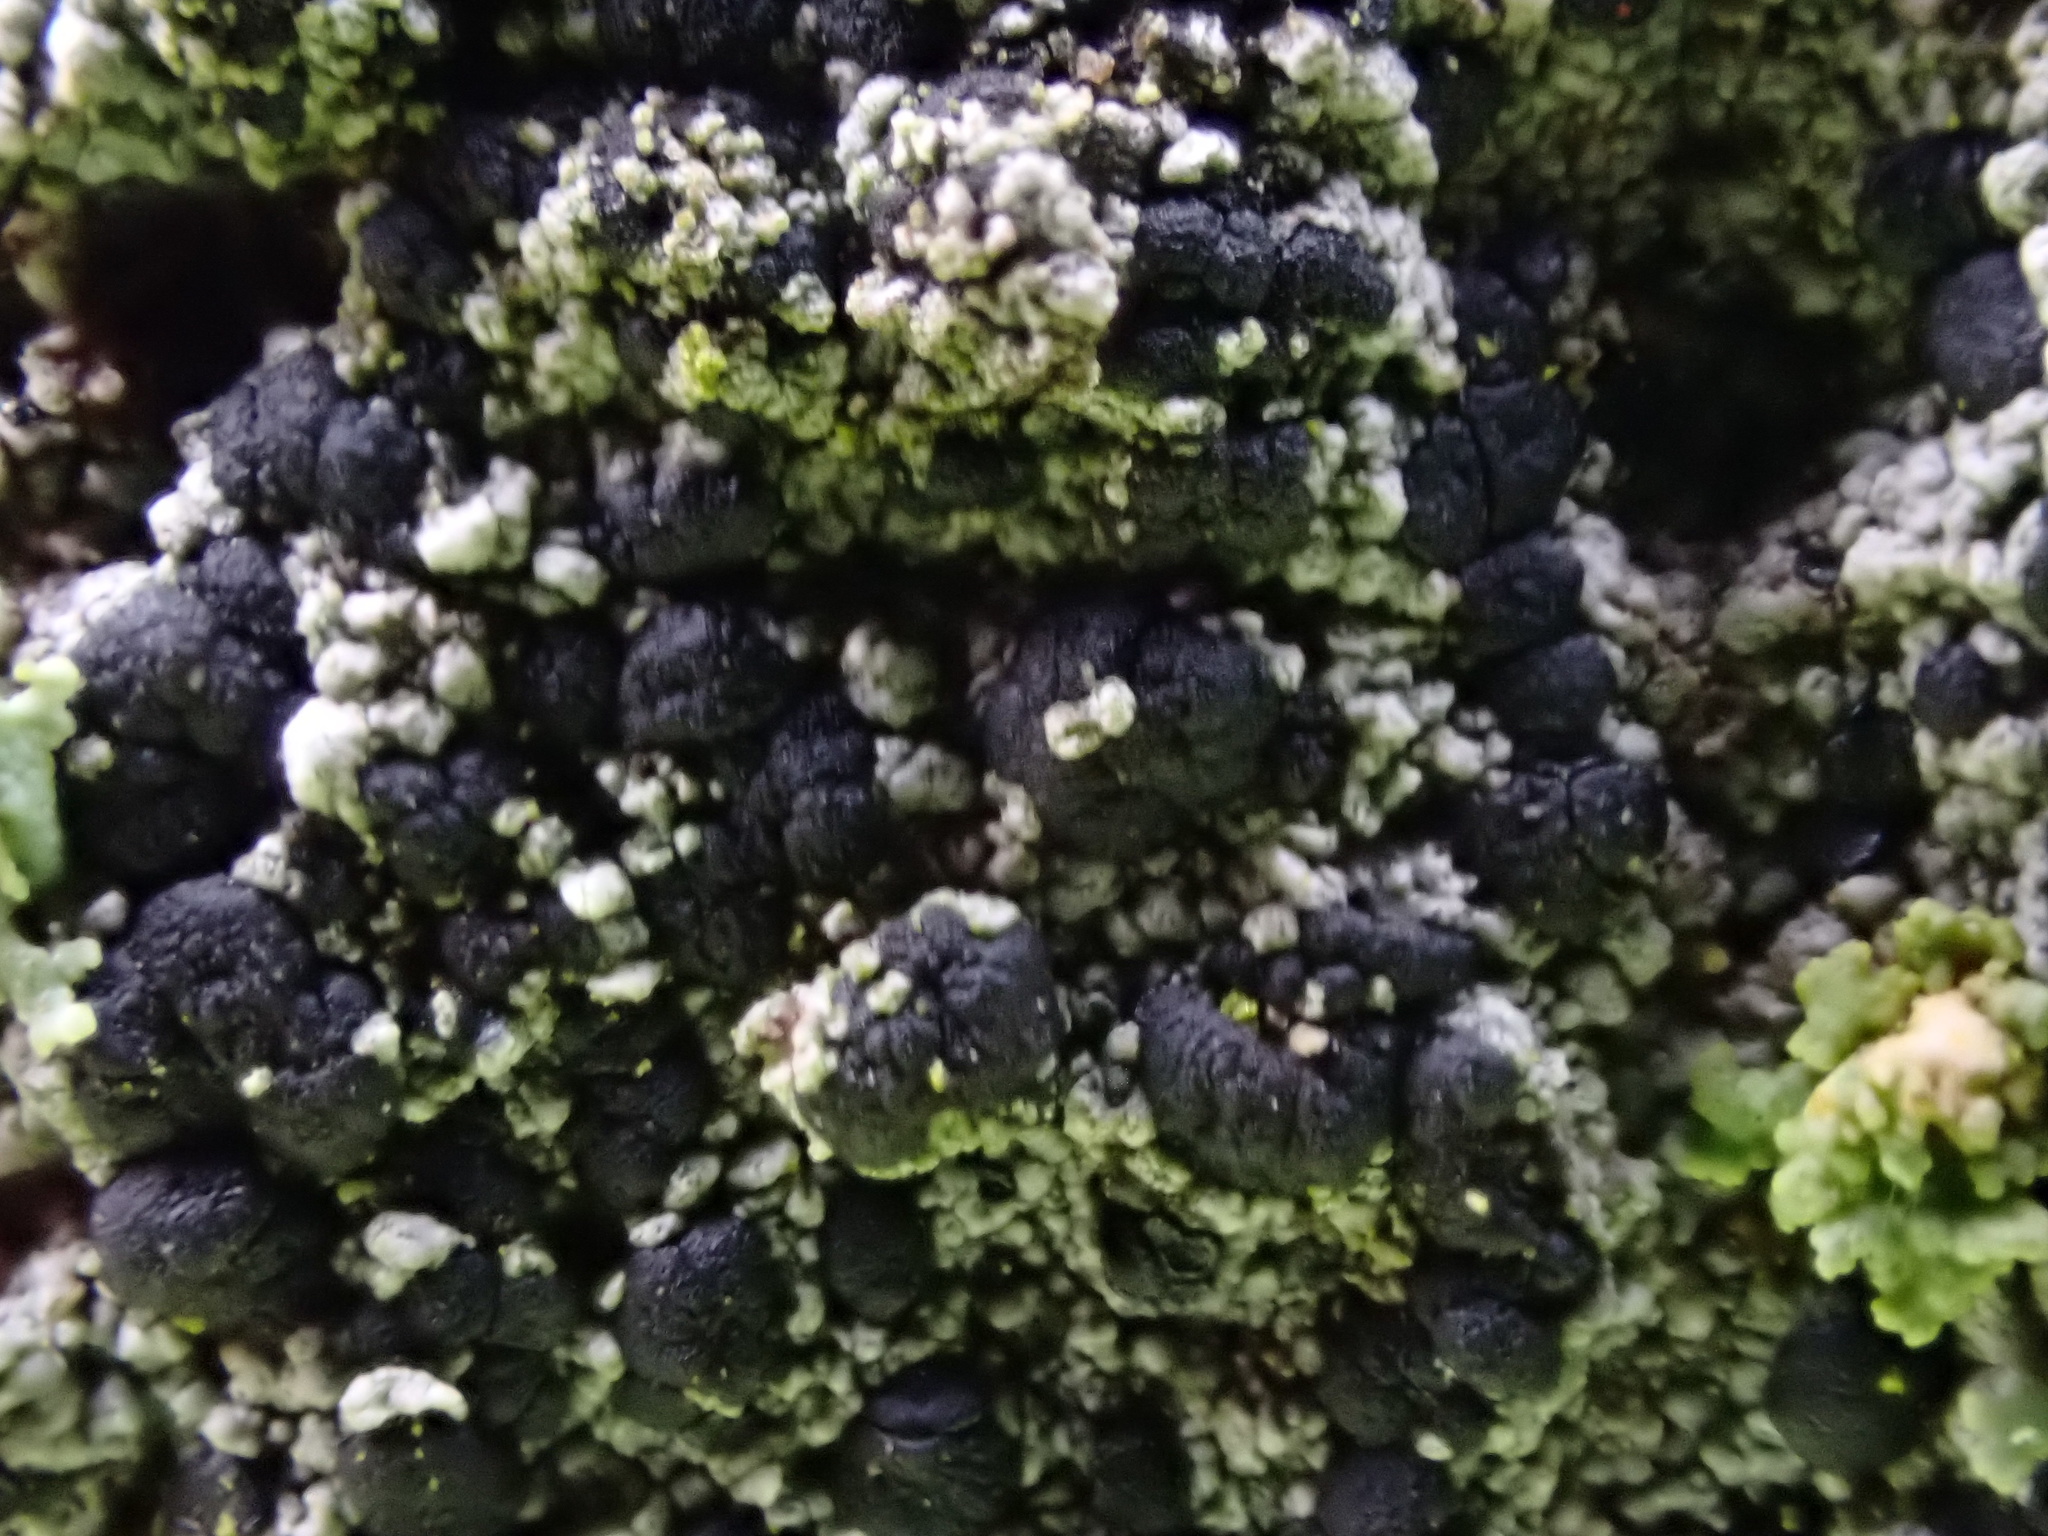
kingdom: Fungi
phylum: Ascomycota
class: Lecanoromycetes
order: Lecanorales
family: Lecanoraceae
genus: Lecidella
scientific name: Lecidella elaeochroma
